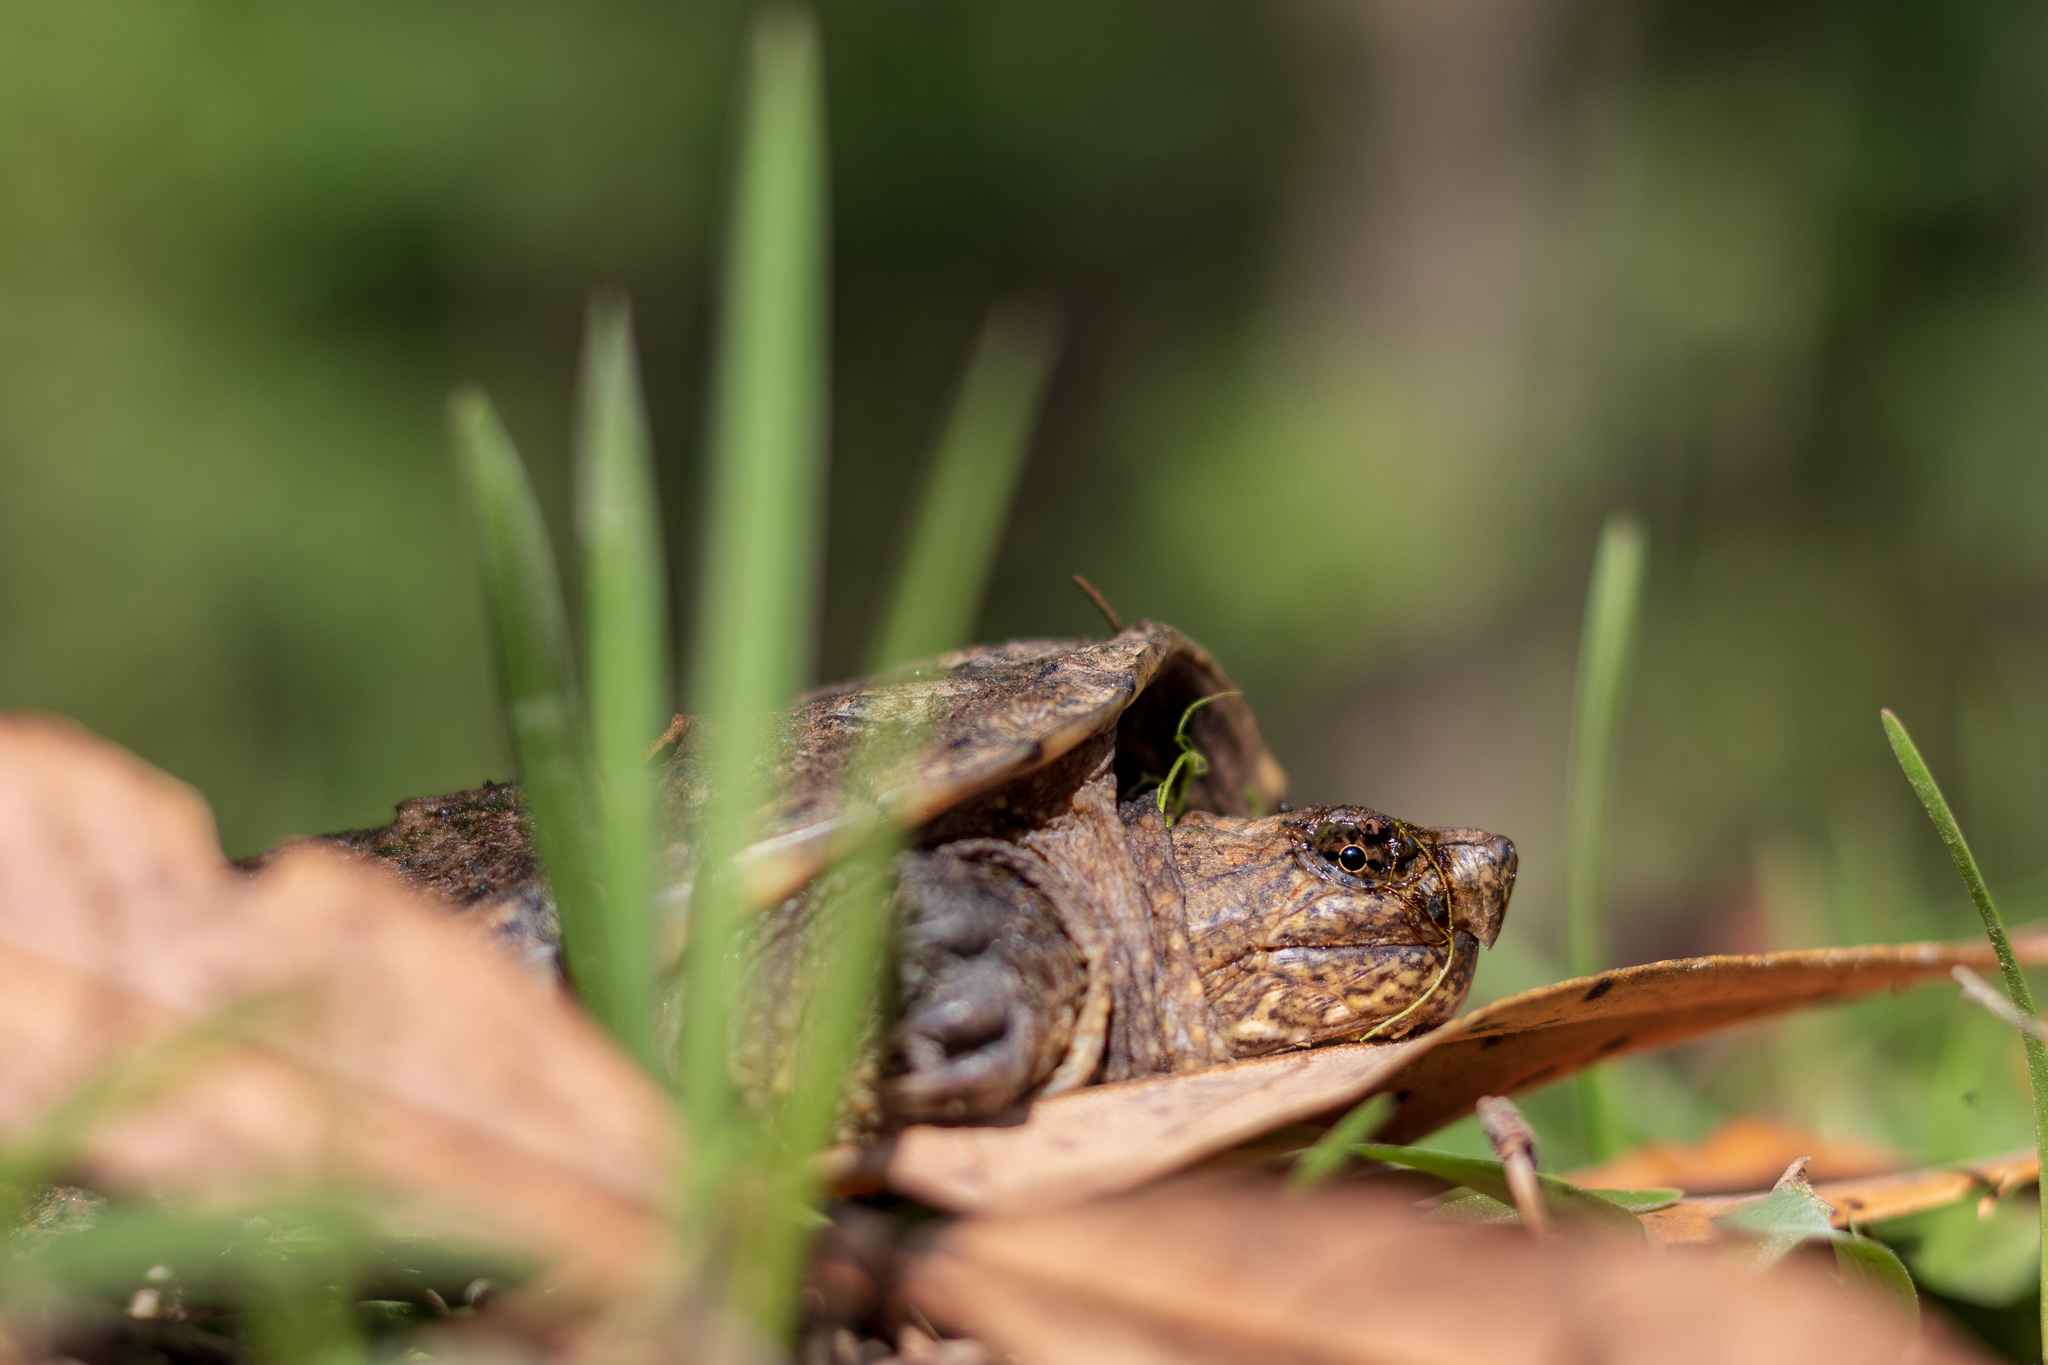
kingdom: Animalia
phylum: Chordata
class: Testudines
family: Chelydridae
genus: Chelydra
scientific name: Chelydra serpentina
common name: Common snapping turtle
